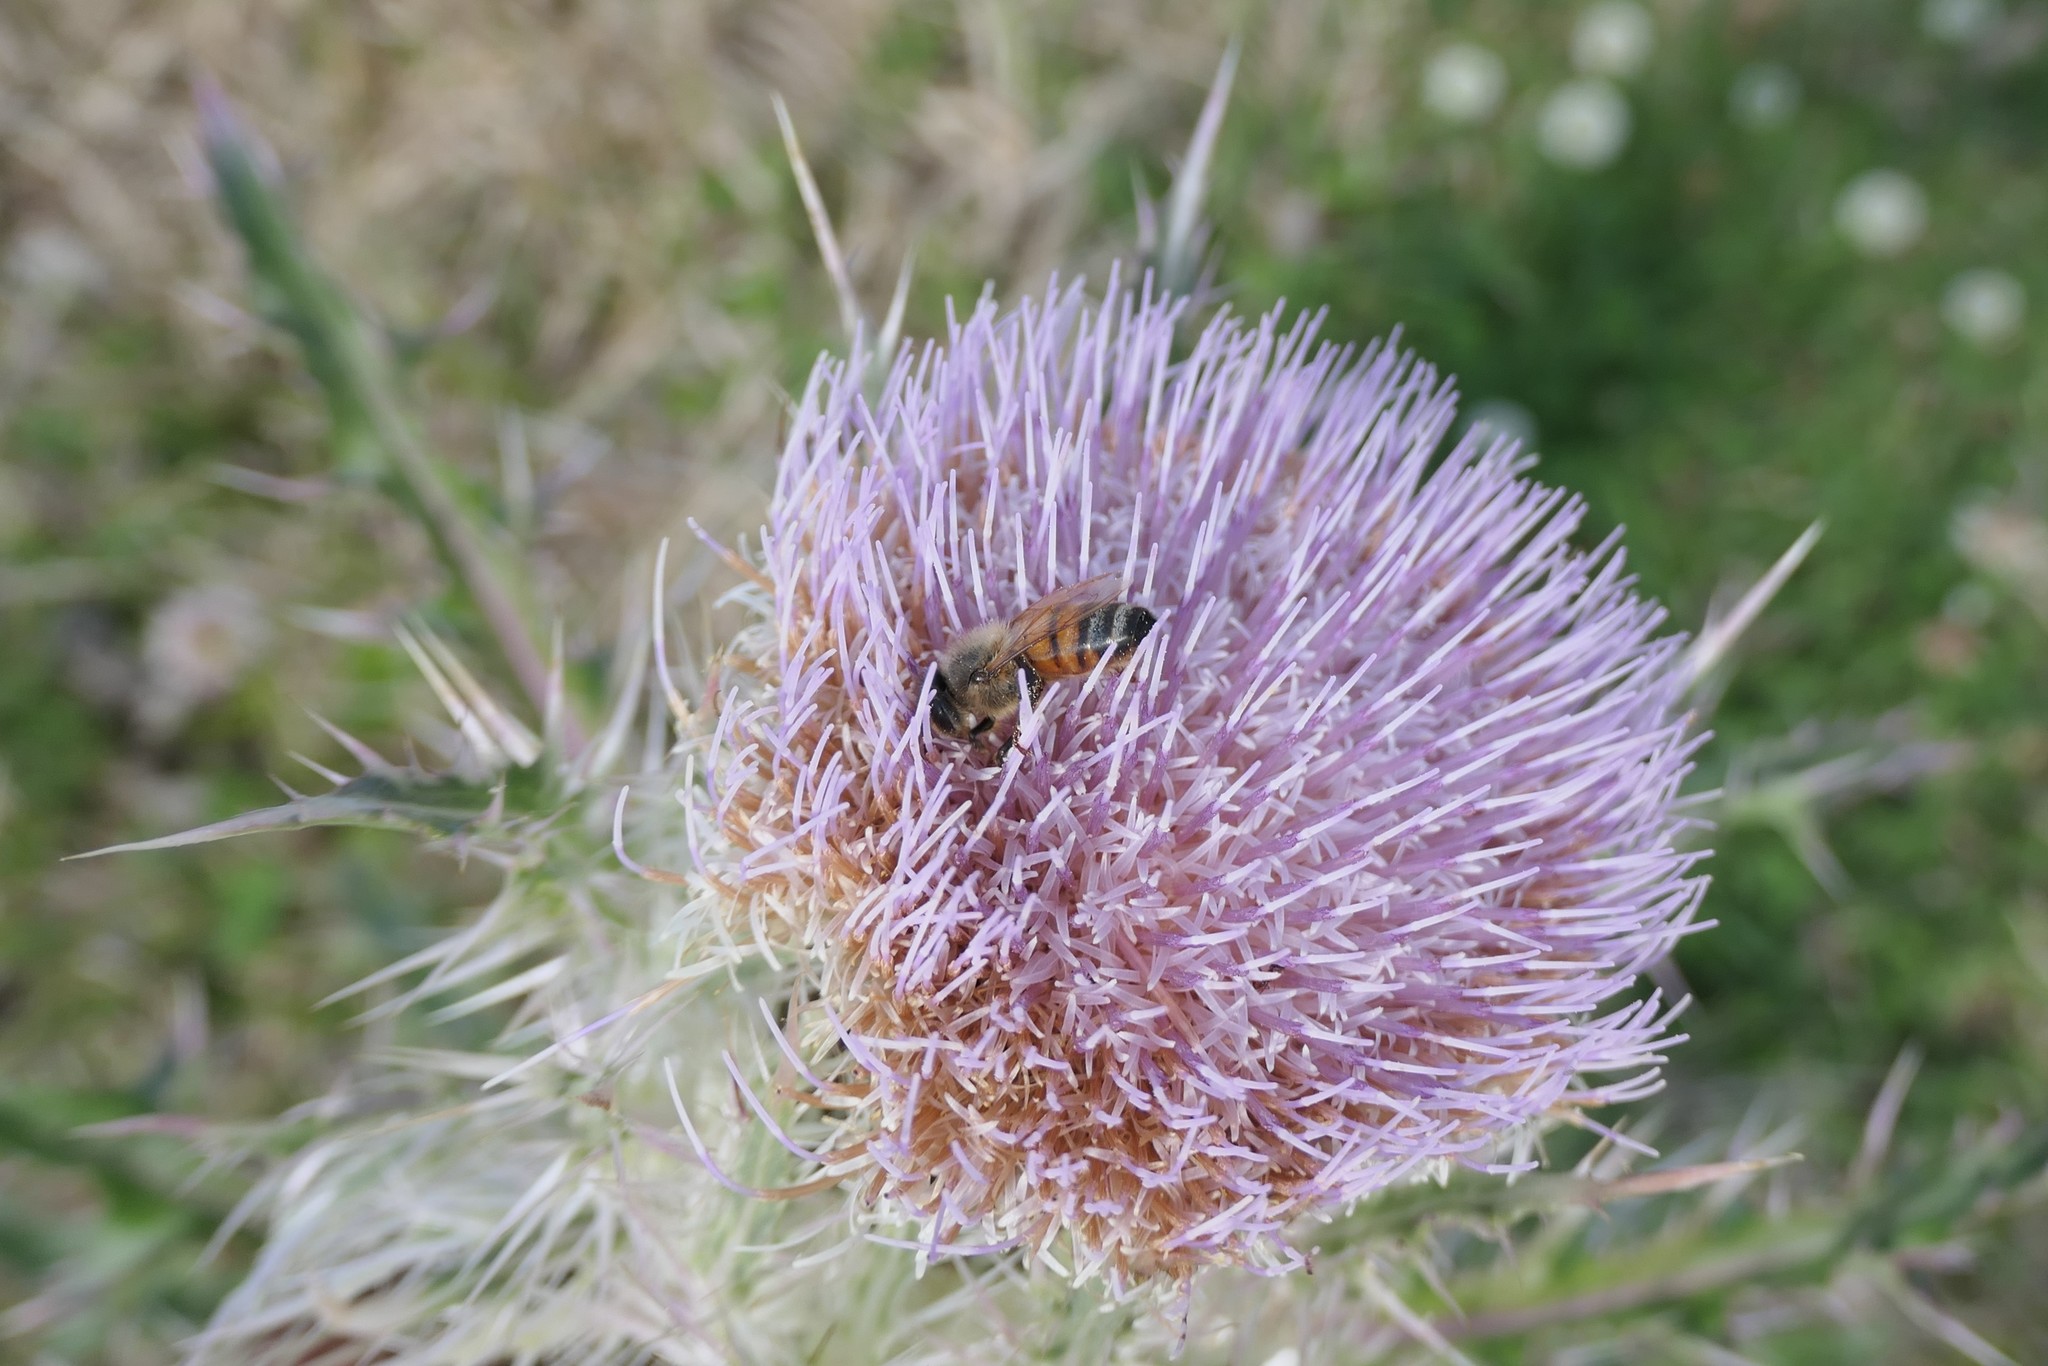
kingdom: Animalia
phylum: Arthropoda
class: Insecta
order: Hymenoptera
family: Apidae
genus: Apis
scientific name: Apis mellifera
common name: Honey bee
